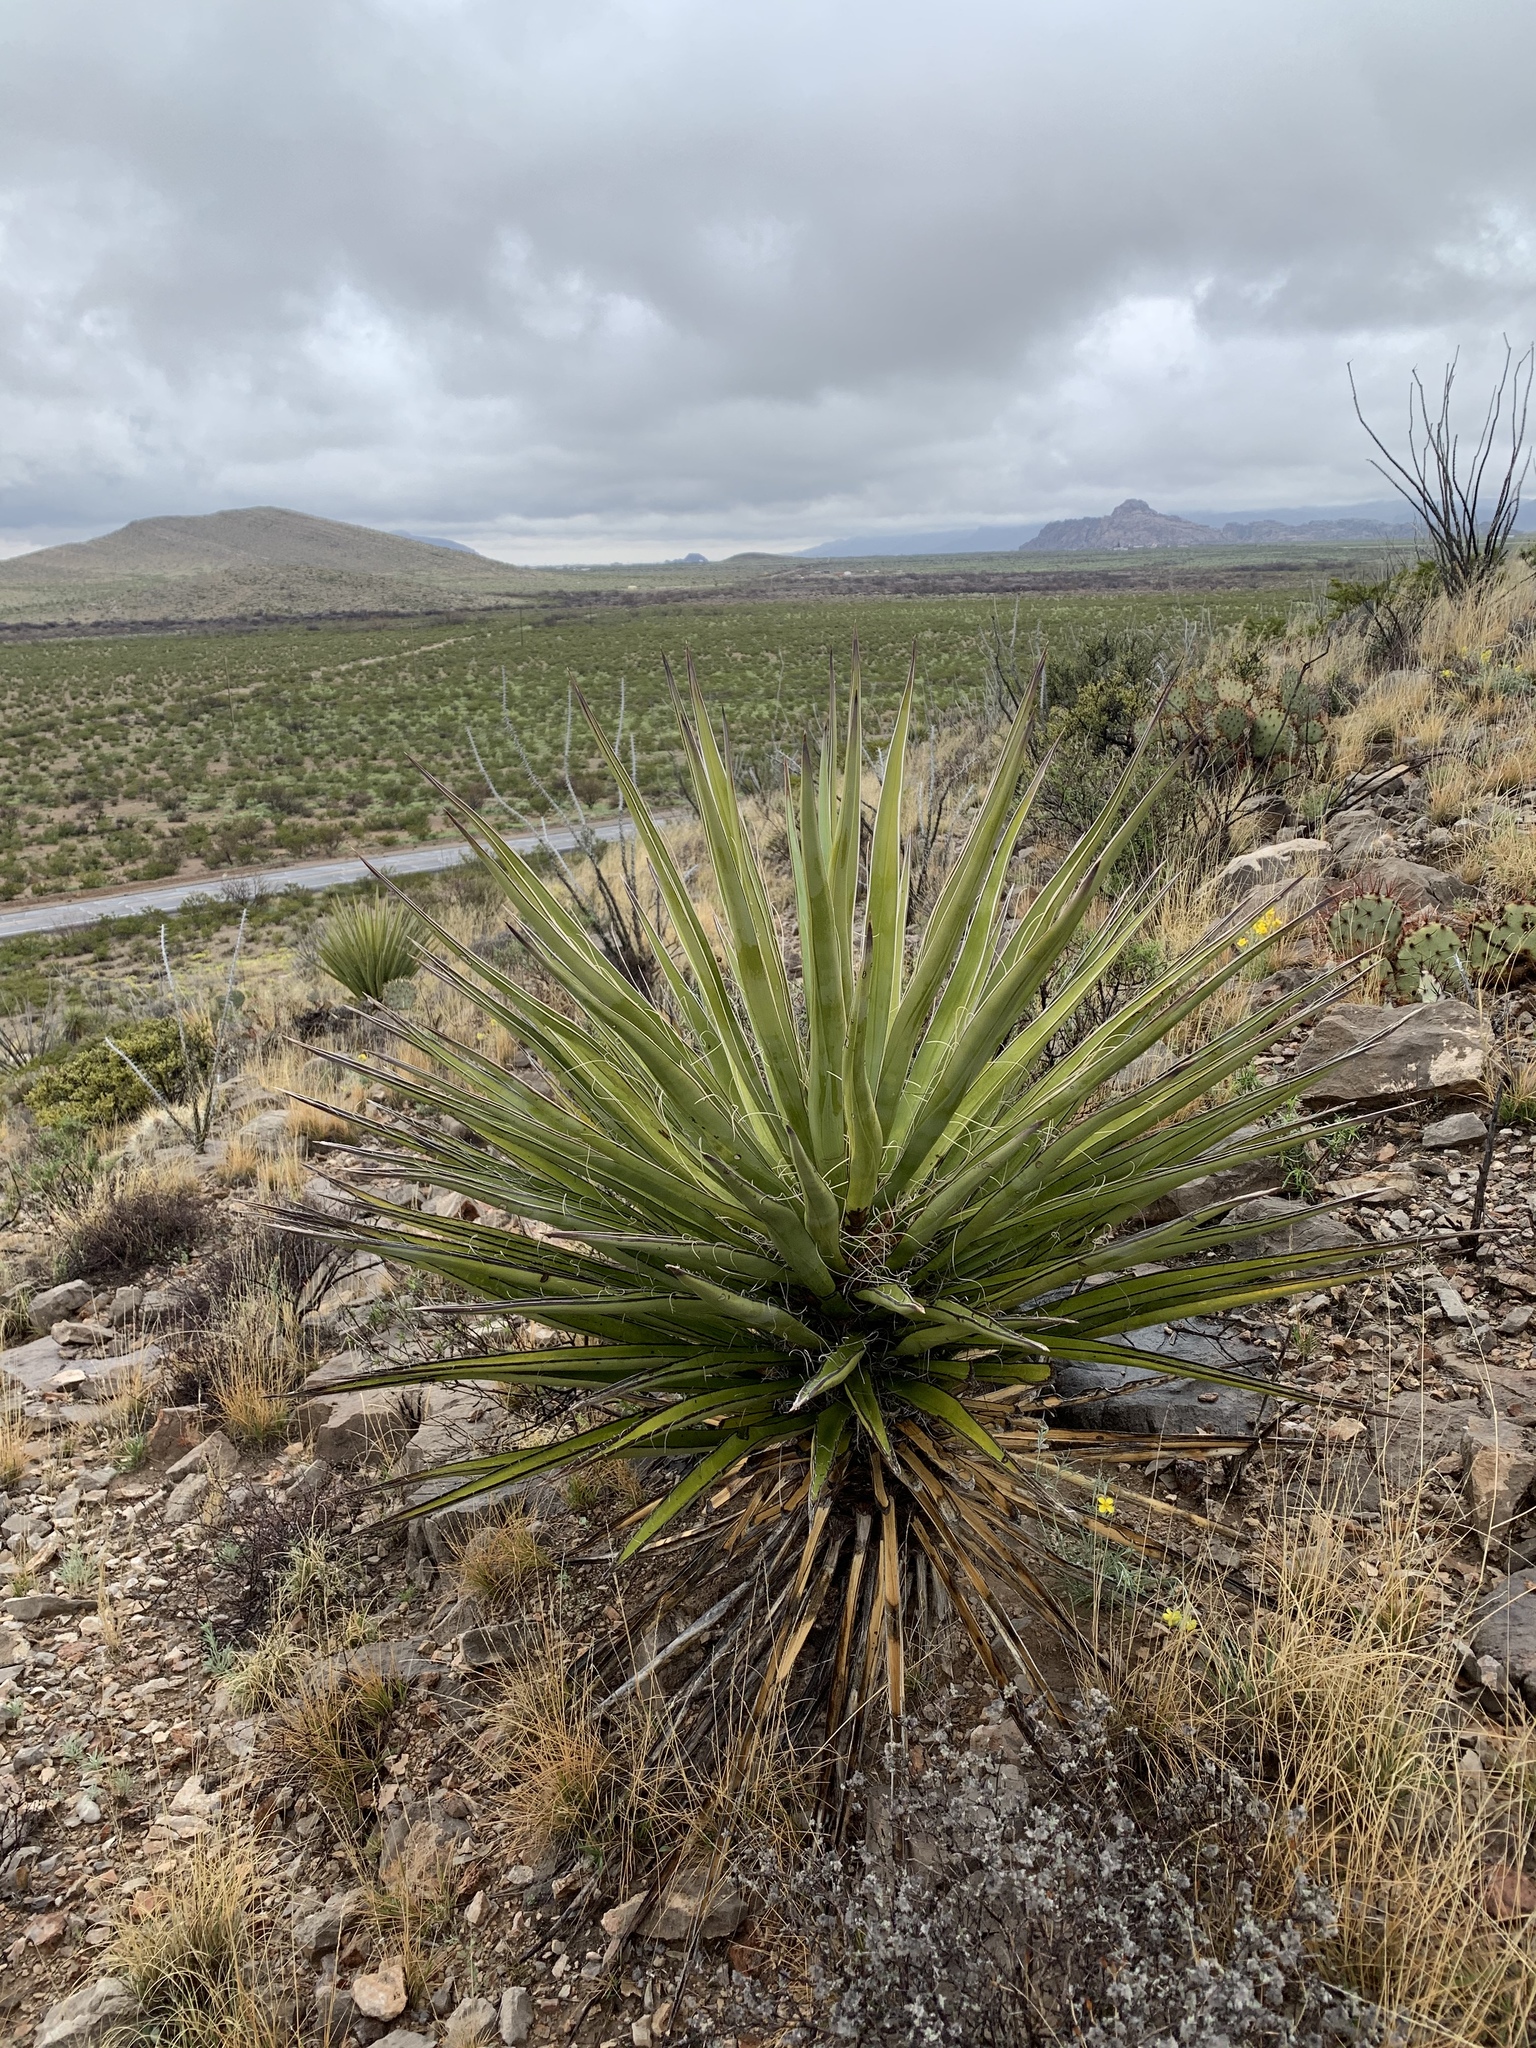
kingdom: Plantae
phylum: Tracheophyta
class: Liliopsida
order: Asparagales
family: Asparagaceae
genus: Yucca
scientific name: Yucca treculiana
